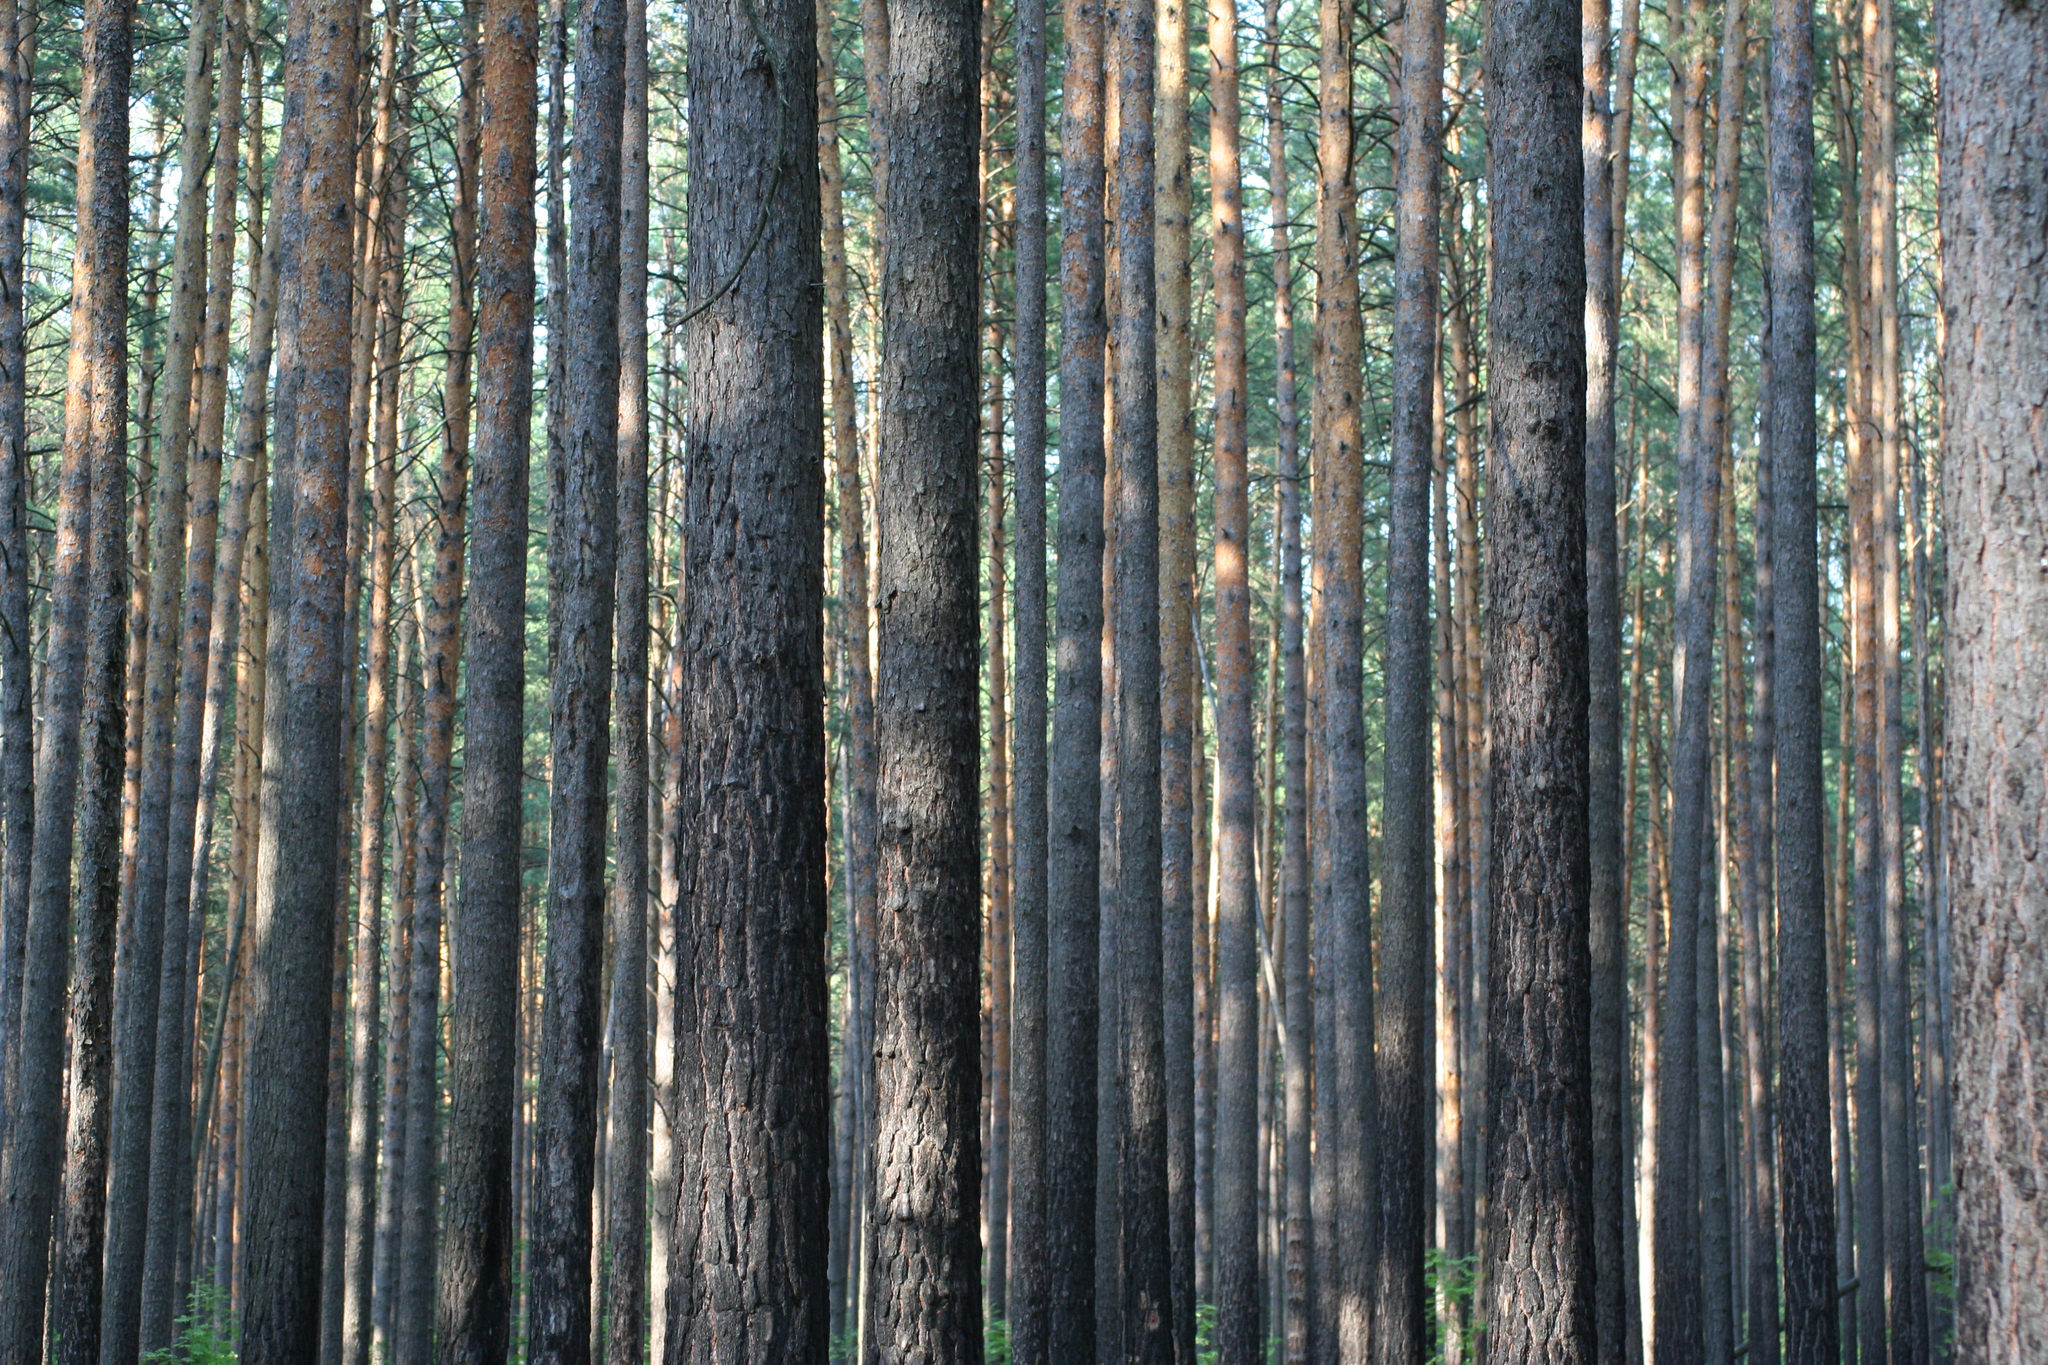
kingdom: Plantae
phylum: Tracheophyta
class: Pinopsida
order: Pinales
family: Pinaceae
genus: Pinus
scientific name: Pinus sylvestris
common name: Scots pine
